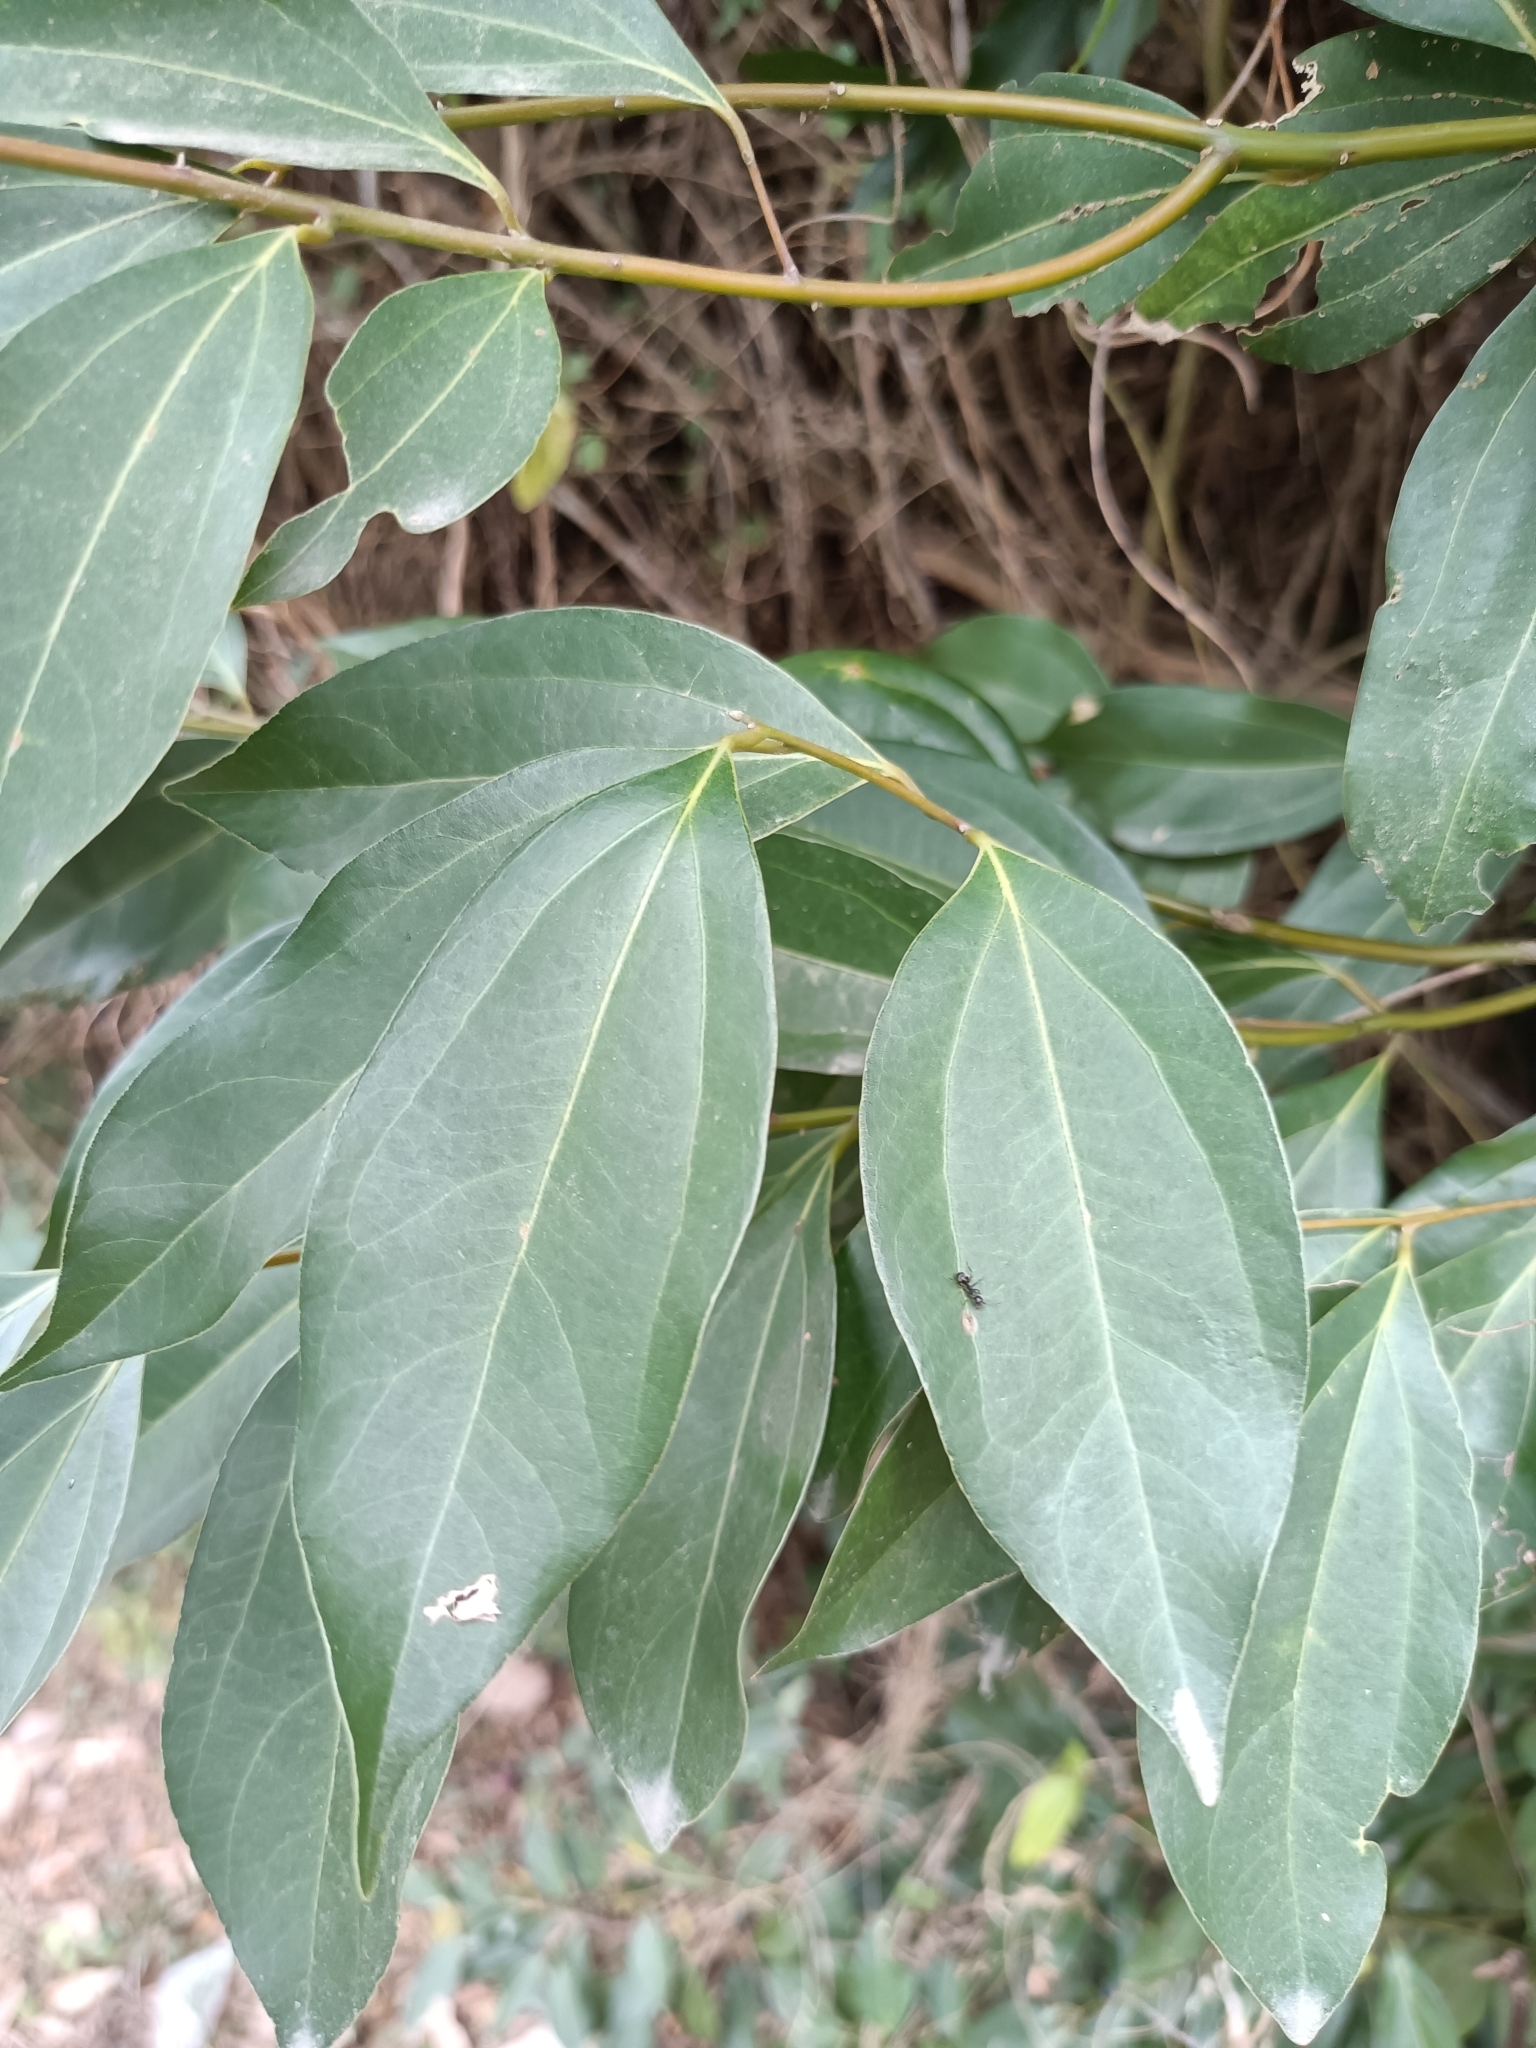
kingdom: Plantae
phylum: Tracheophyta
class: Magnoliopsida
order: Laurales
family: Lauraceae
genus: Cinnamomum
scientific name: Cinnamomum burmanni
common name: Padang cassia
